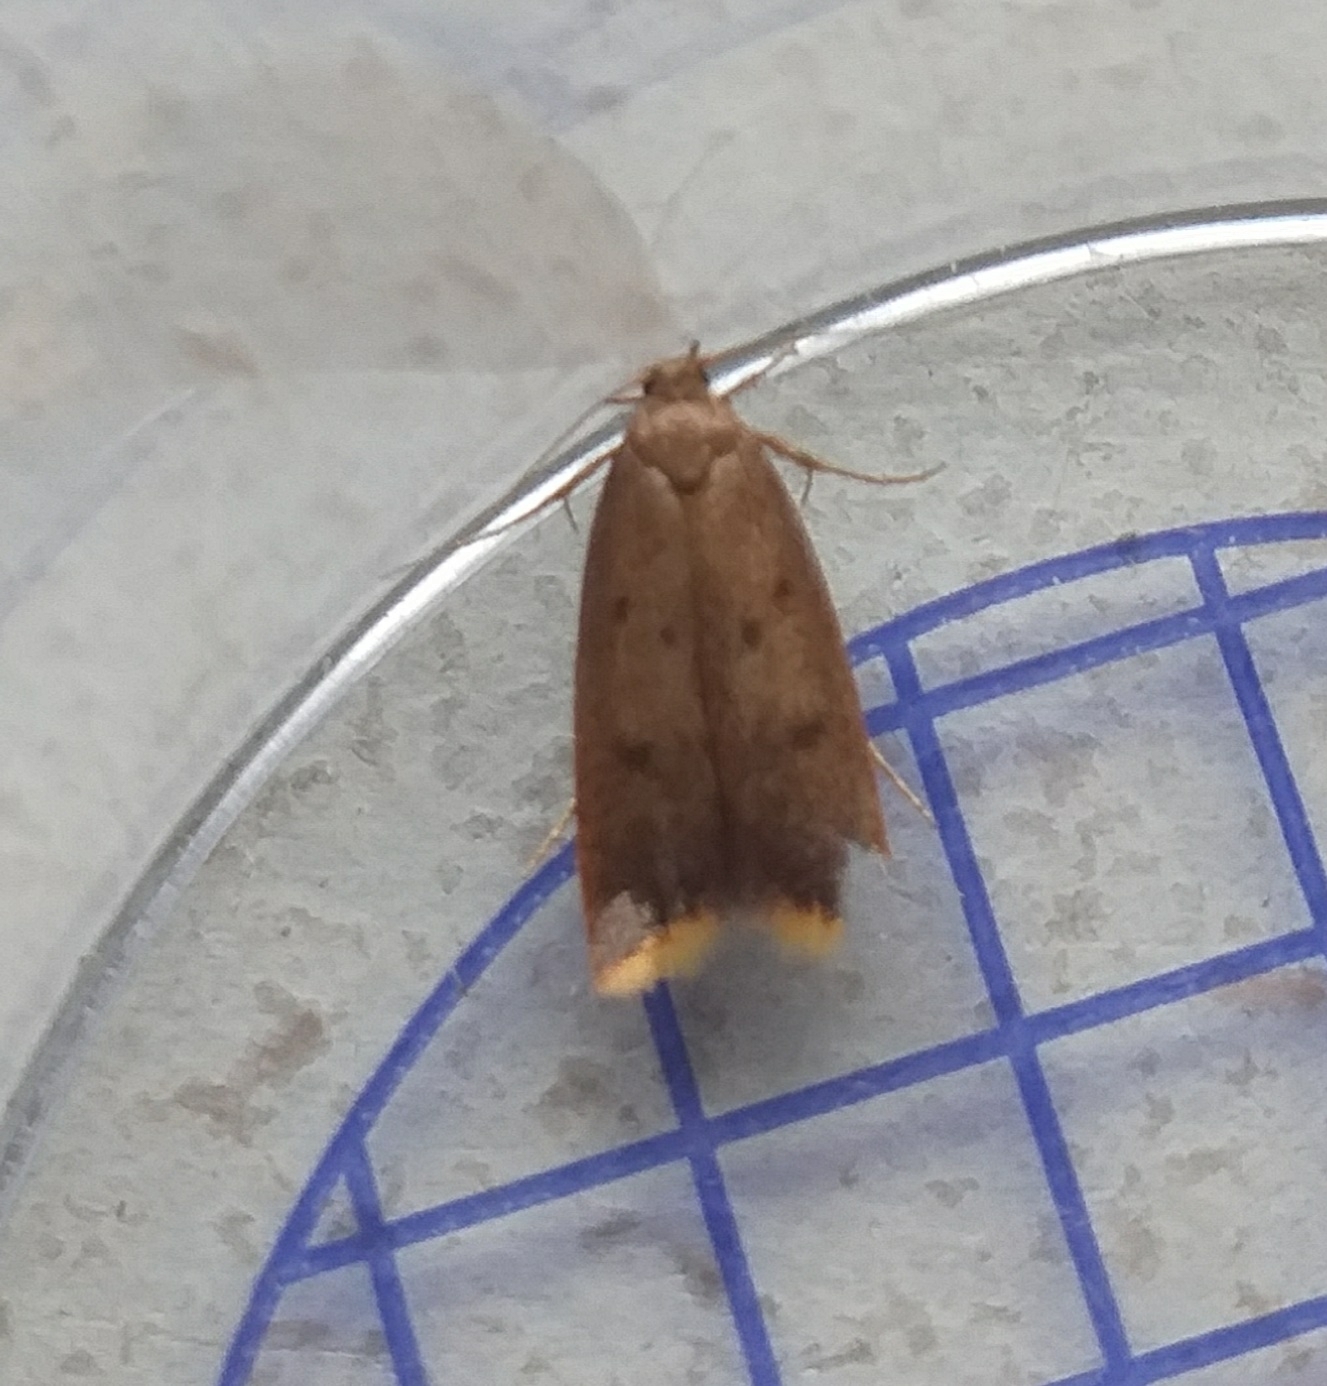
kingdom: Animalia
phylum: Arthropoda
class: Insecta
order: Lepidoptera
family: Oecophoridae
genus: Tachystola
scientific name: Tachystola acroxantha
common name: Ruddy streak
